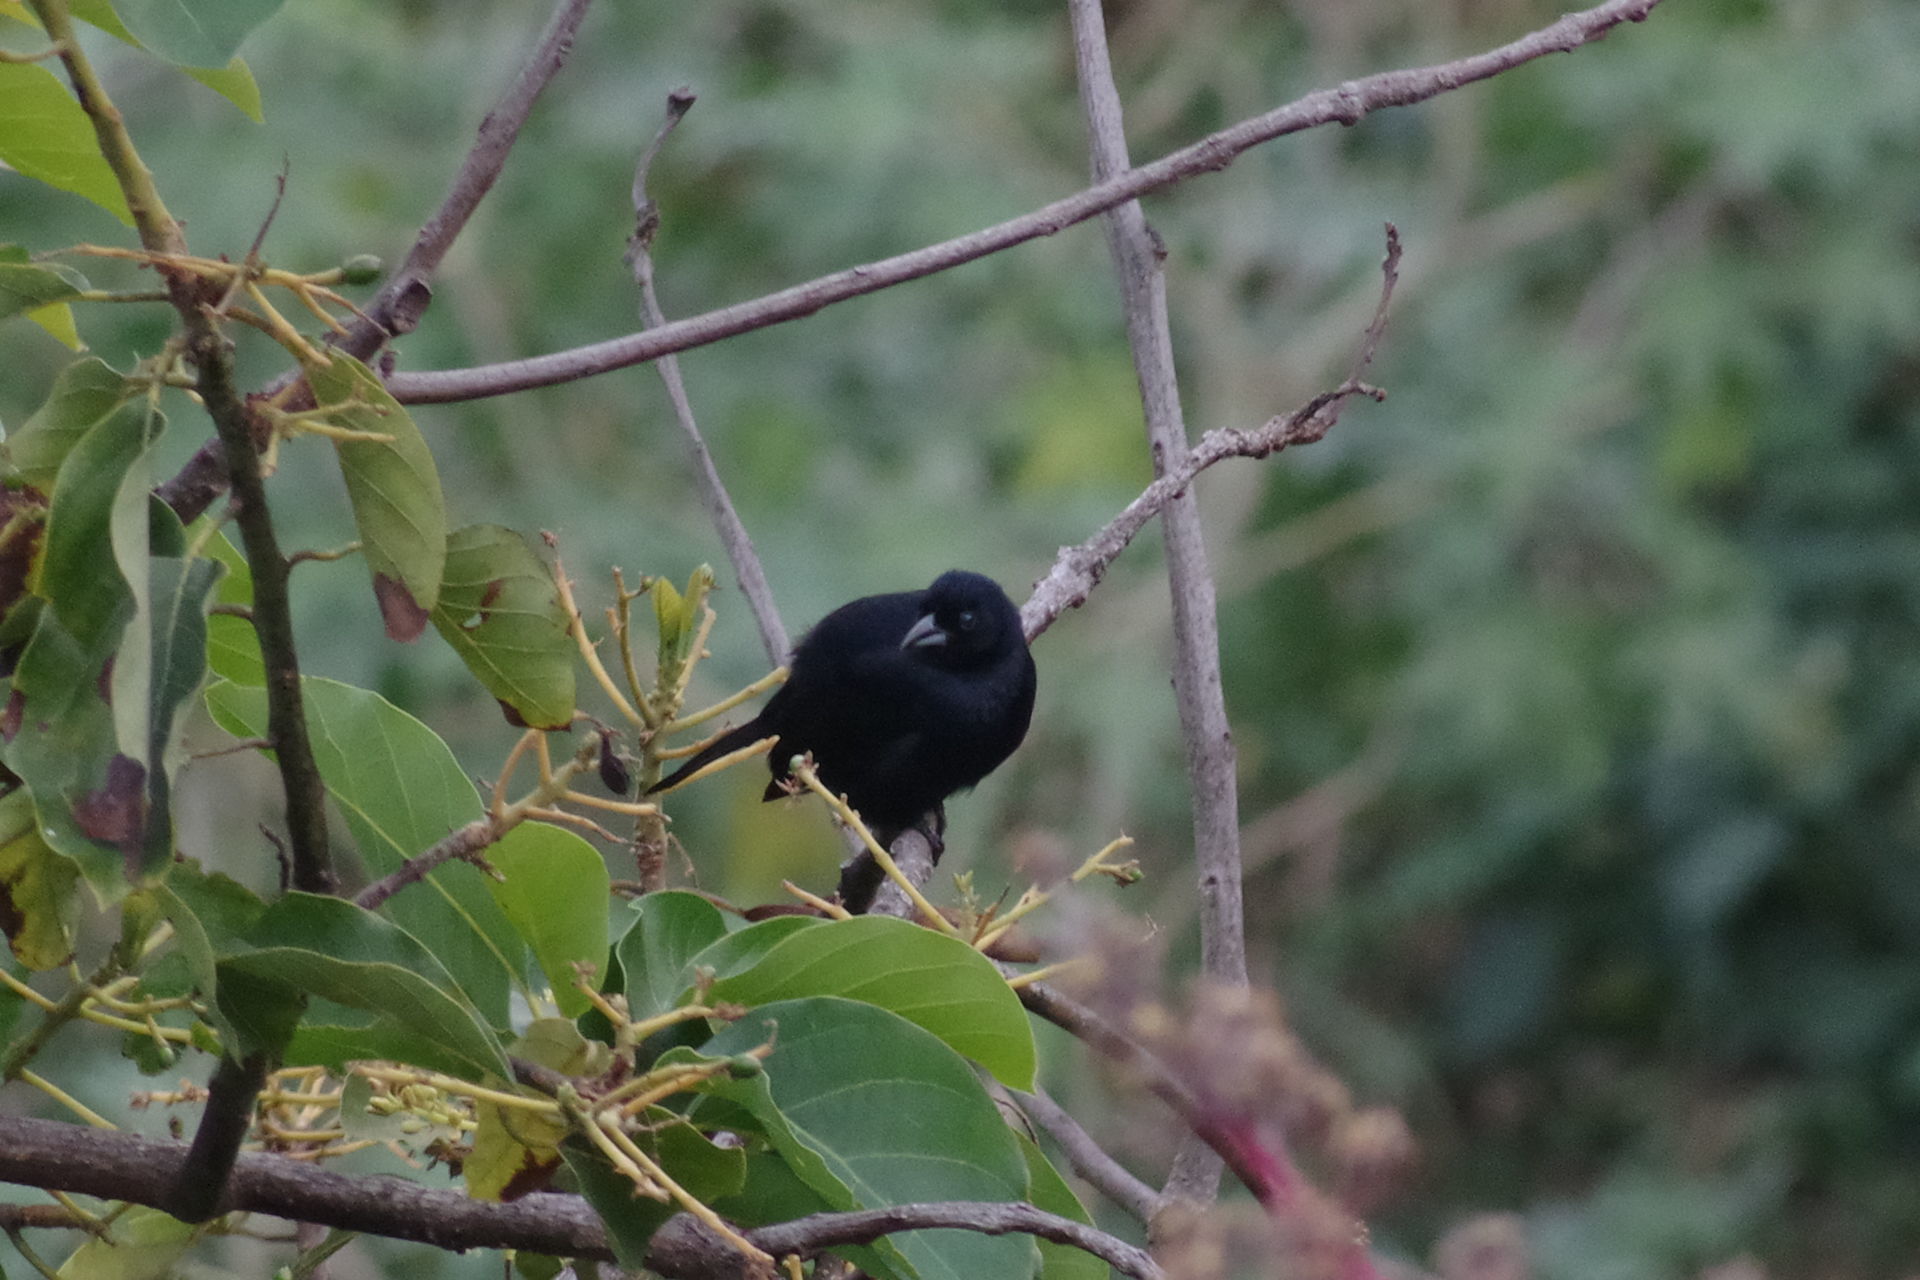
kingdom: Animalia
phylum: Chordata
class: Aves
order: Passeriformes
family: Icteridae
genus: Molothrus
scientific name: Molothrus bonariensis
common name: Shiny cowbird
